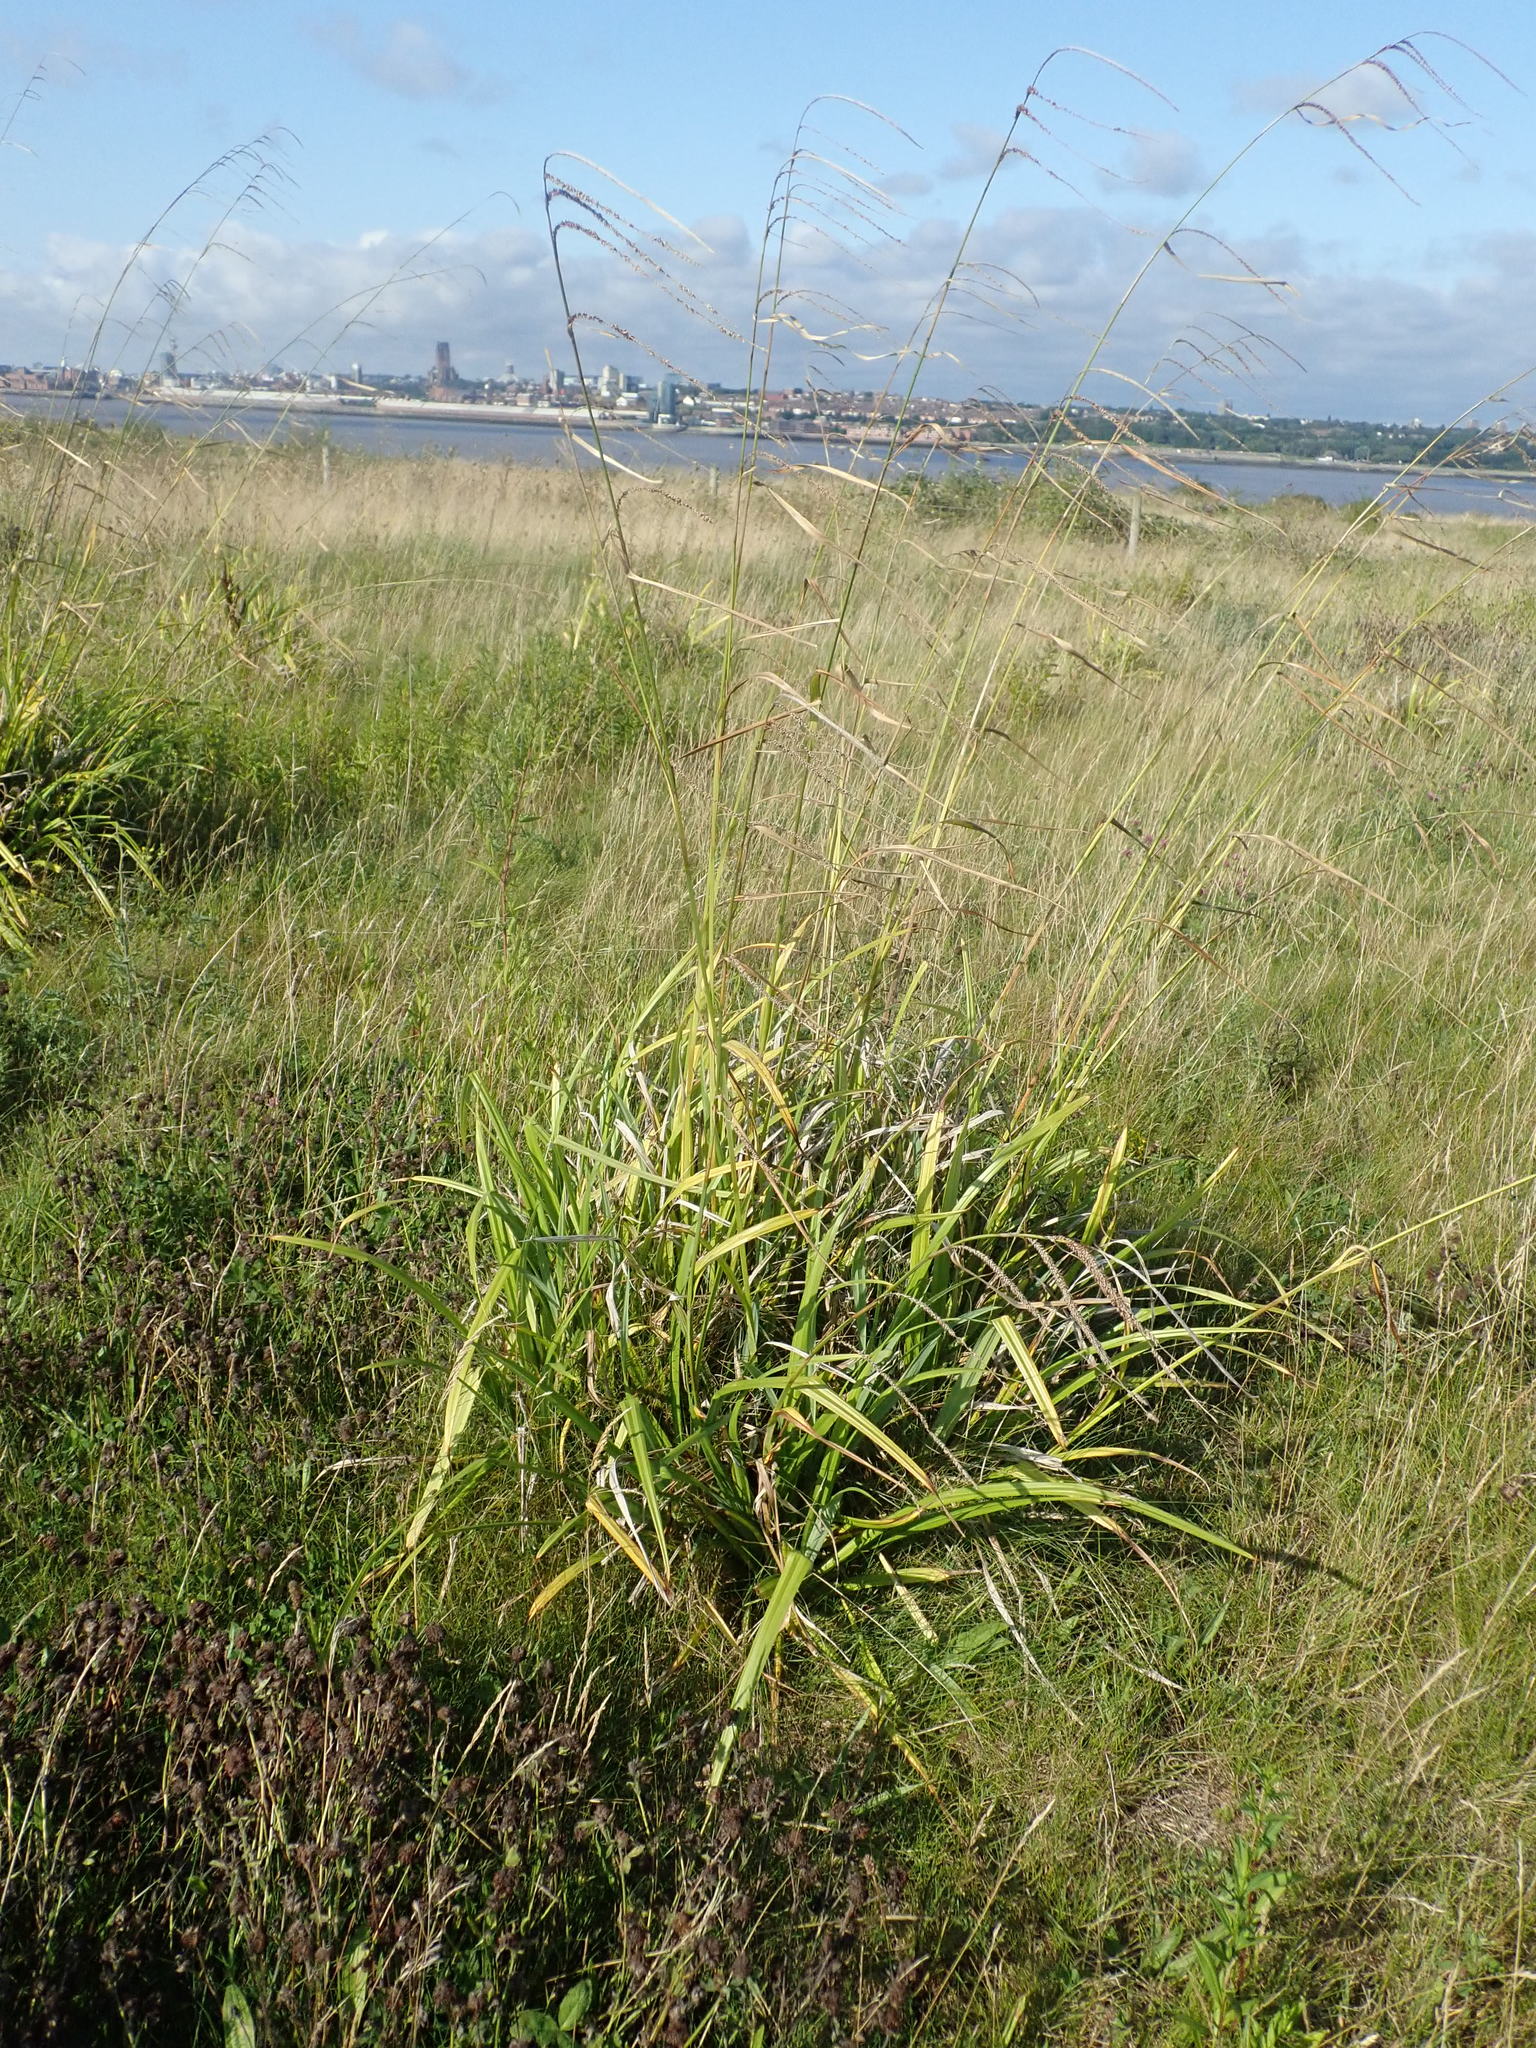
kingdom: Plantae
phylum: Tracheophyta
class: Liliopsida
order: Poales
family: Cyperaceae
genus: Carex
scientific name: Carex pendula
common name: Pendulous sedge
